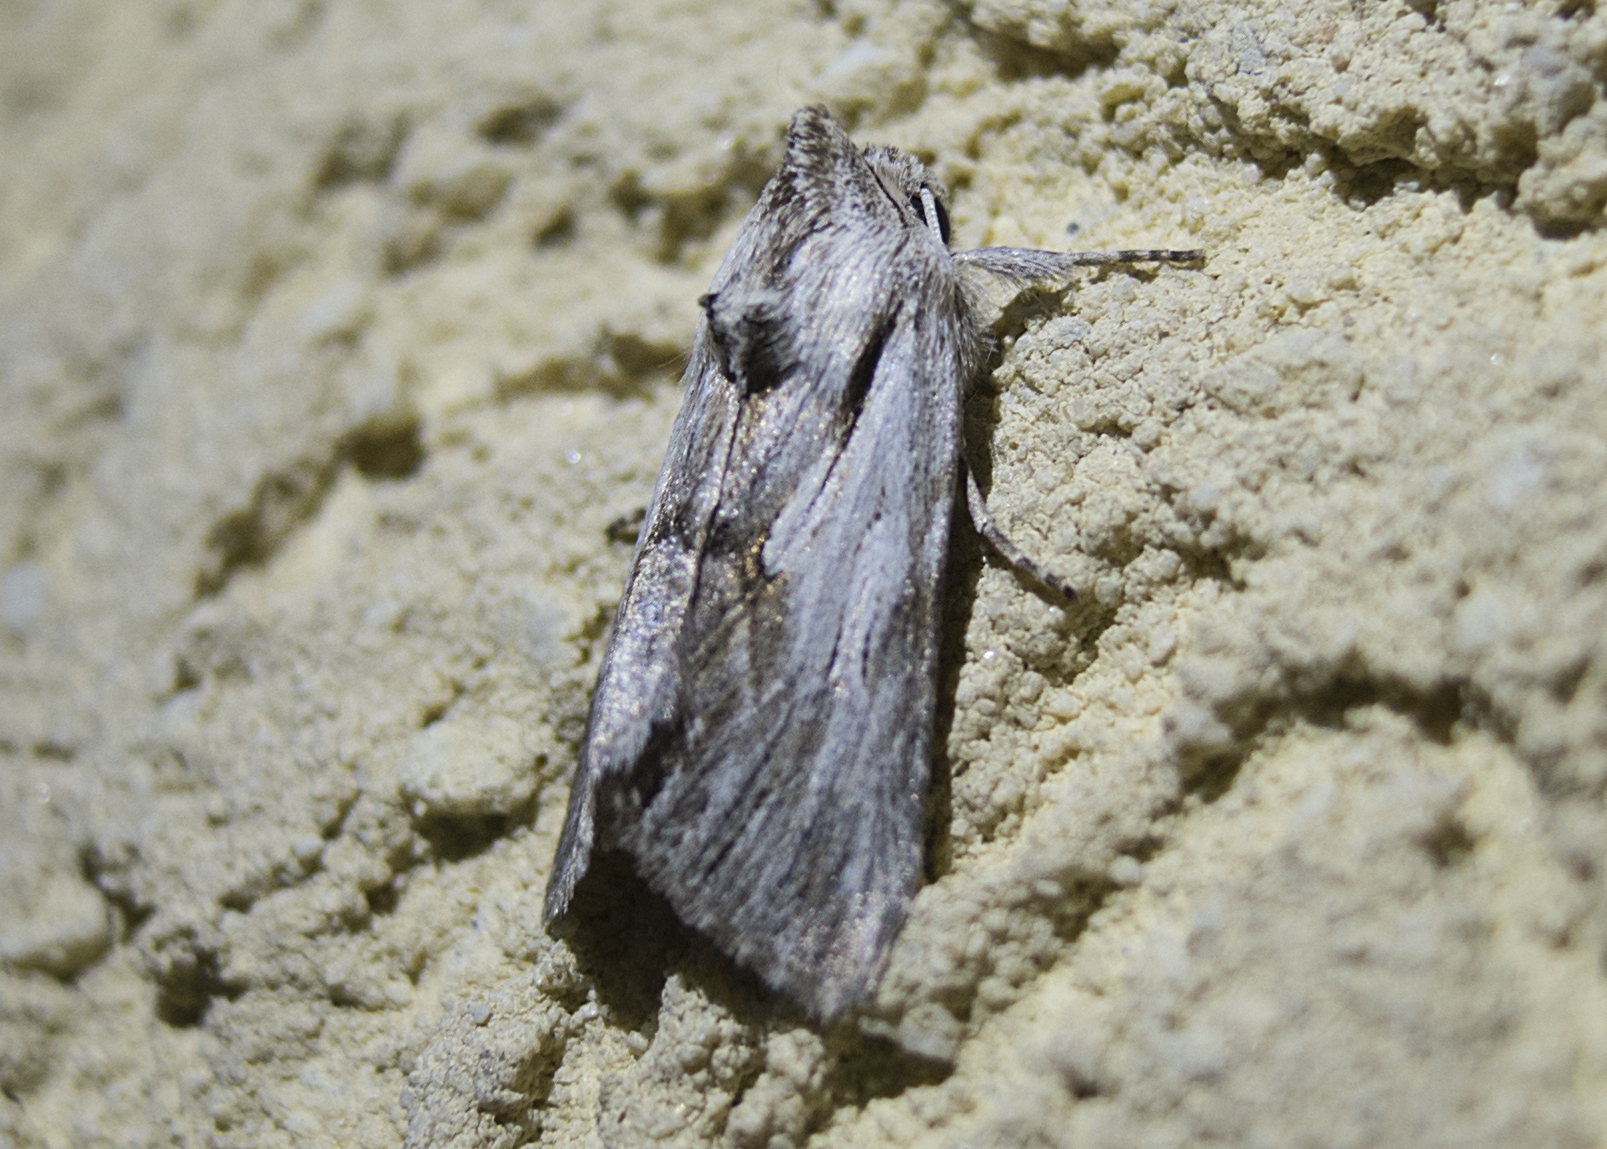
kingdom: Animalia
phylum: Arthropoda
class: Insecta
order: Lepidoptera
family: Noctuidae
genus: Calophasia
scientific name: Calophasia platyptera
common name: Antirrhinum brocade
